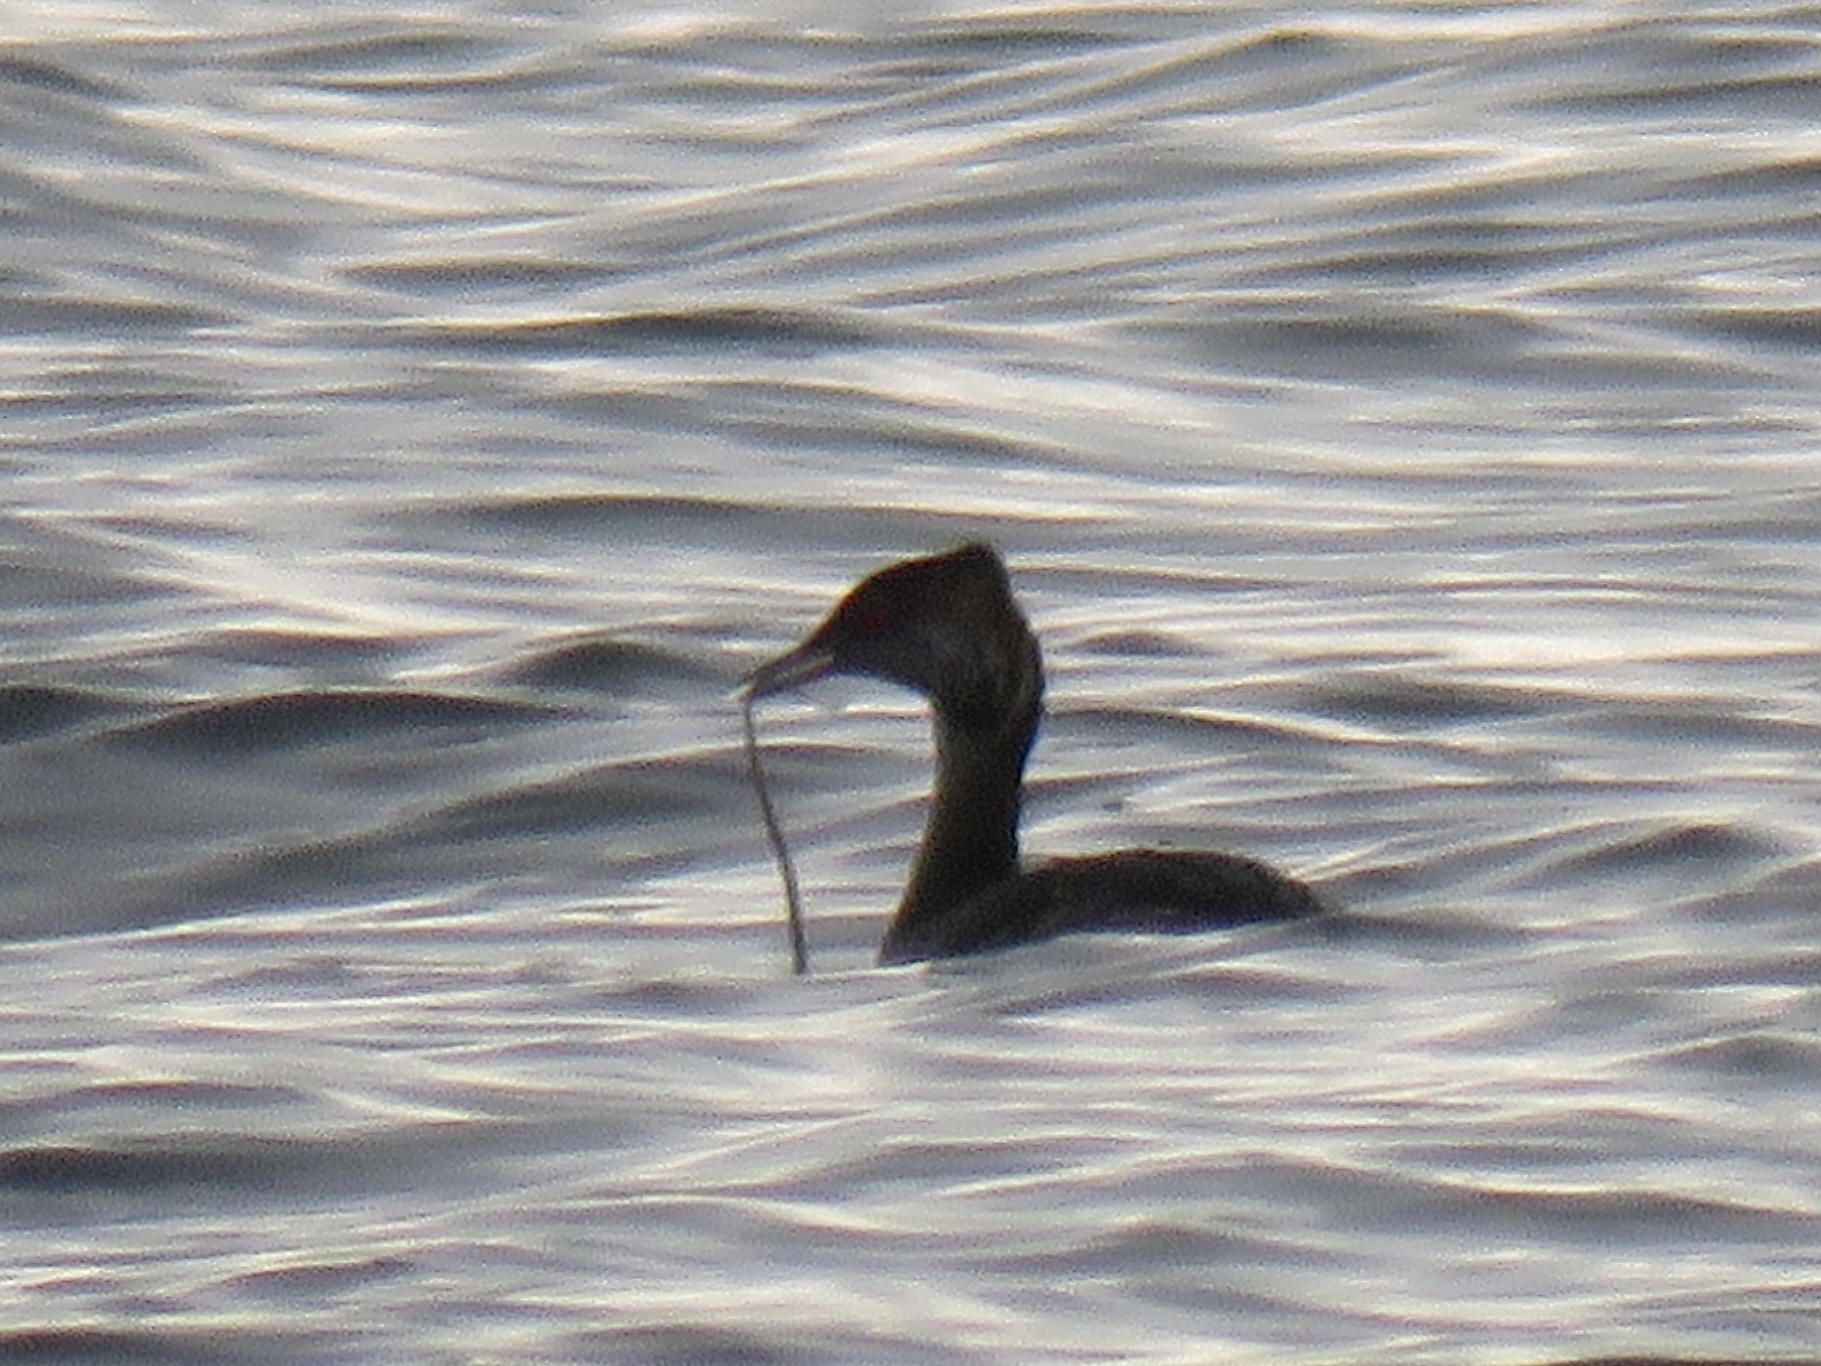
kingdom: Animalia
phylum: Chordata
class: Aves
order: Podicipediformes
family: Podicipedidae
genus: Podiceps
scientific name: Podiceps nigricollis
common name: Black-necked grebe
